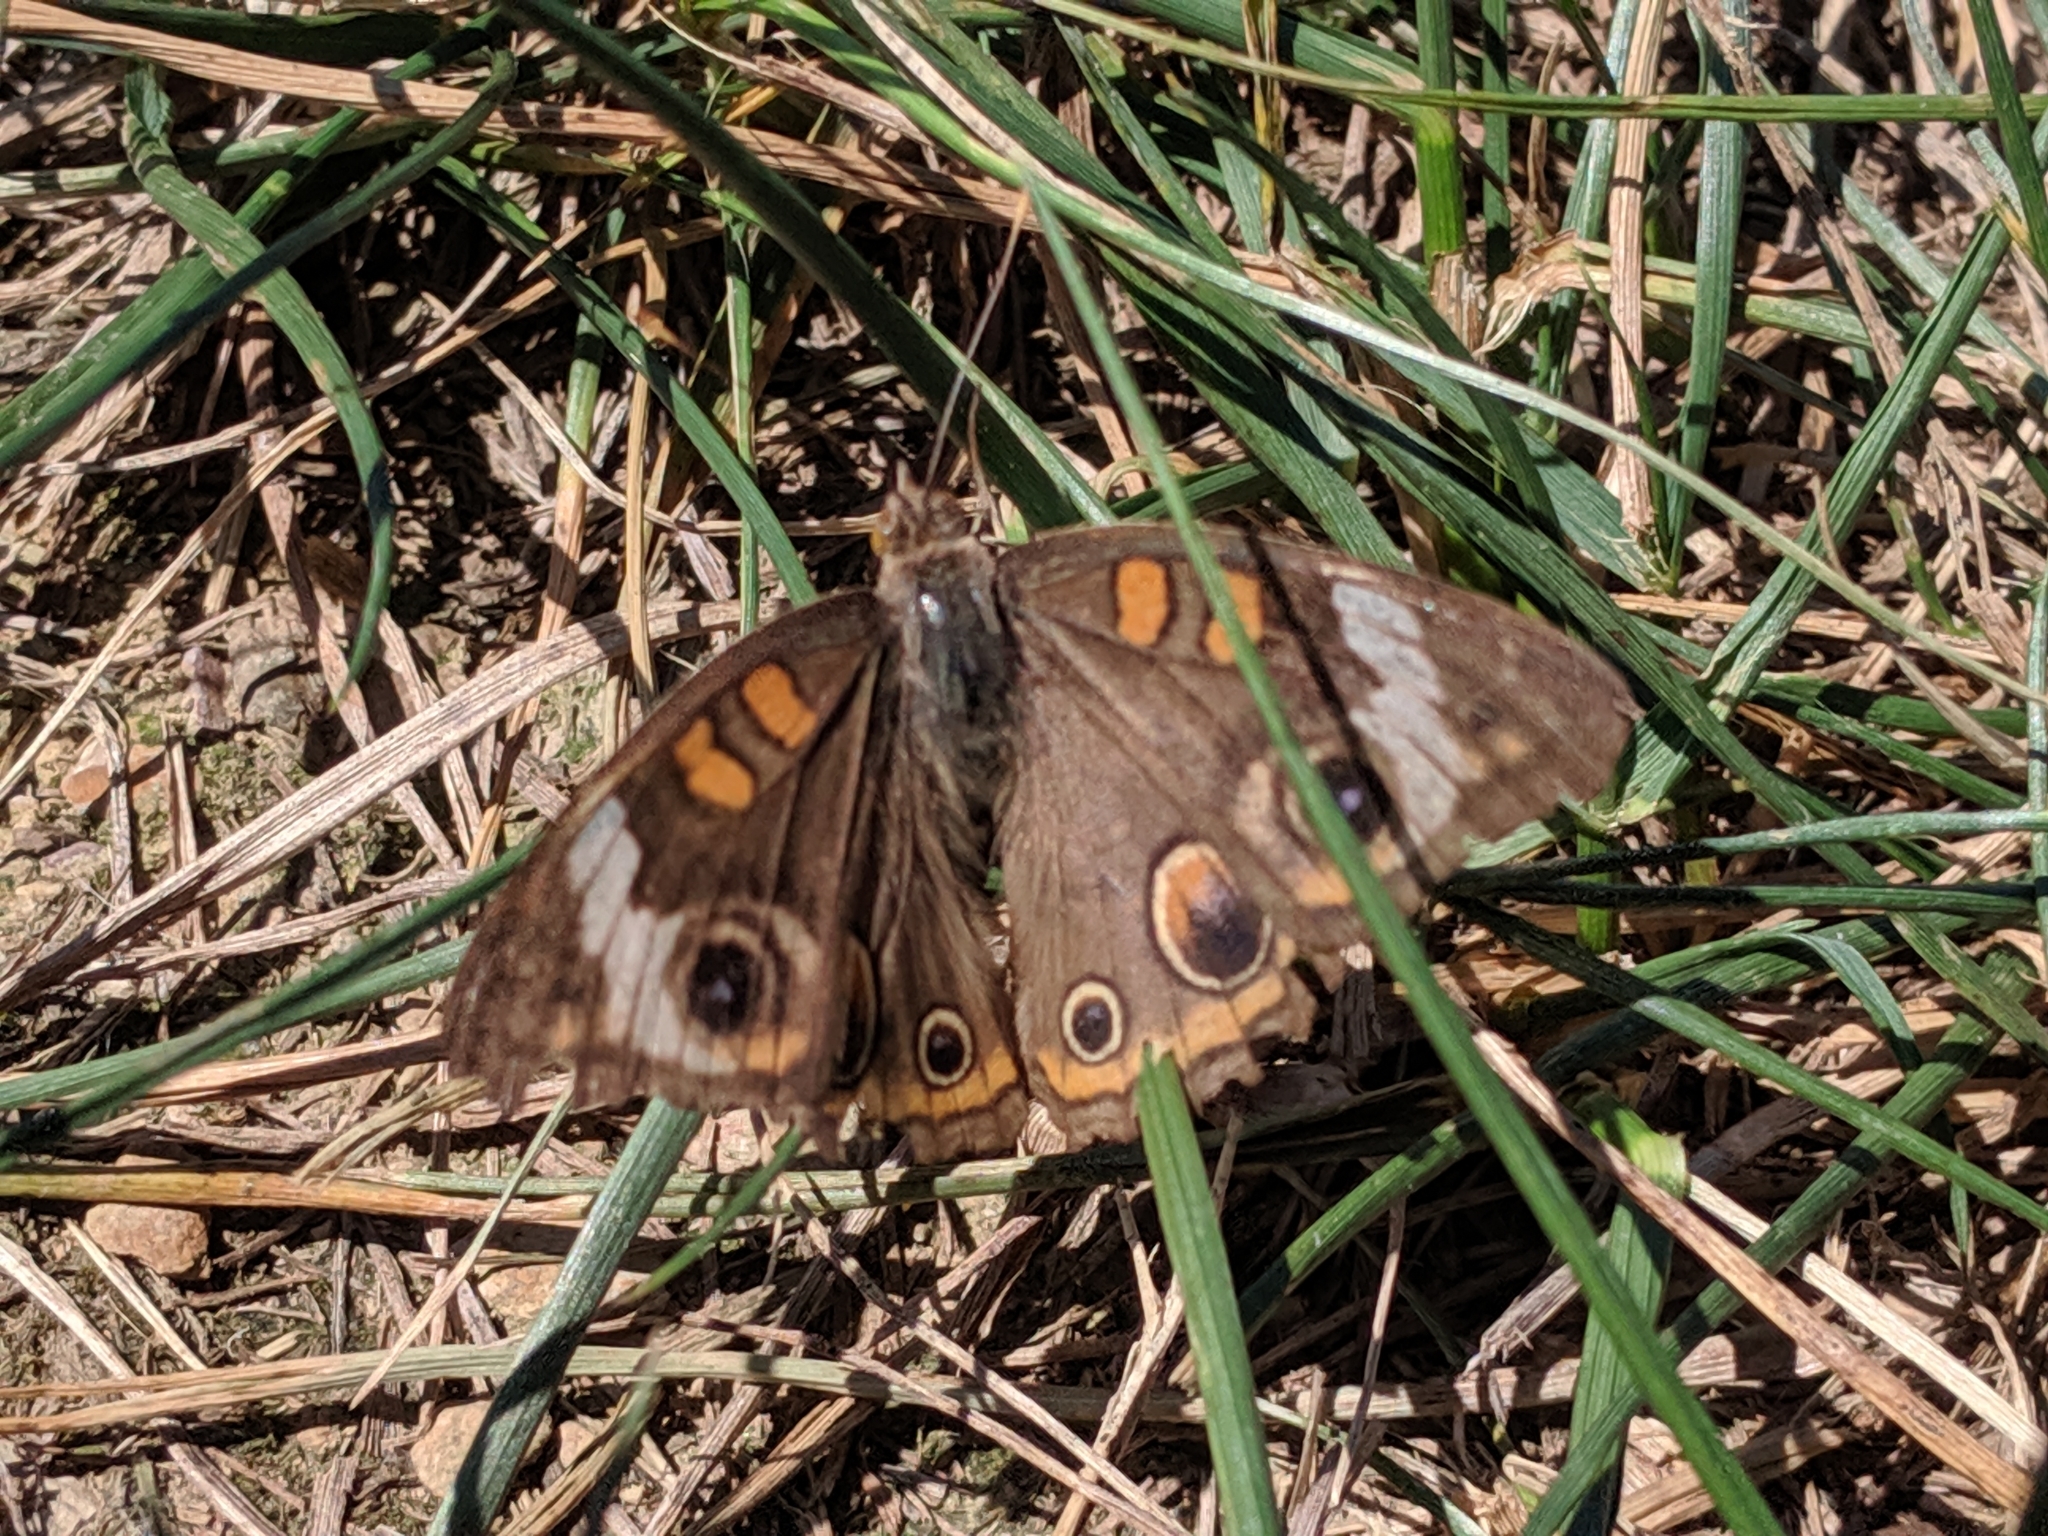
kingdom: Animalia
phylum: Arthropoda
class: Insecta
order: Lepidoptera
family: Nymphalidae
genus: Junonia
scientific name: Junonia coenia
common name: Common buckeye
